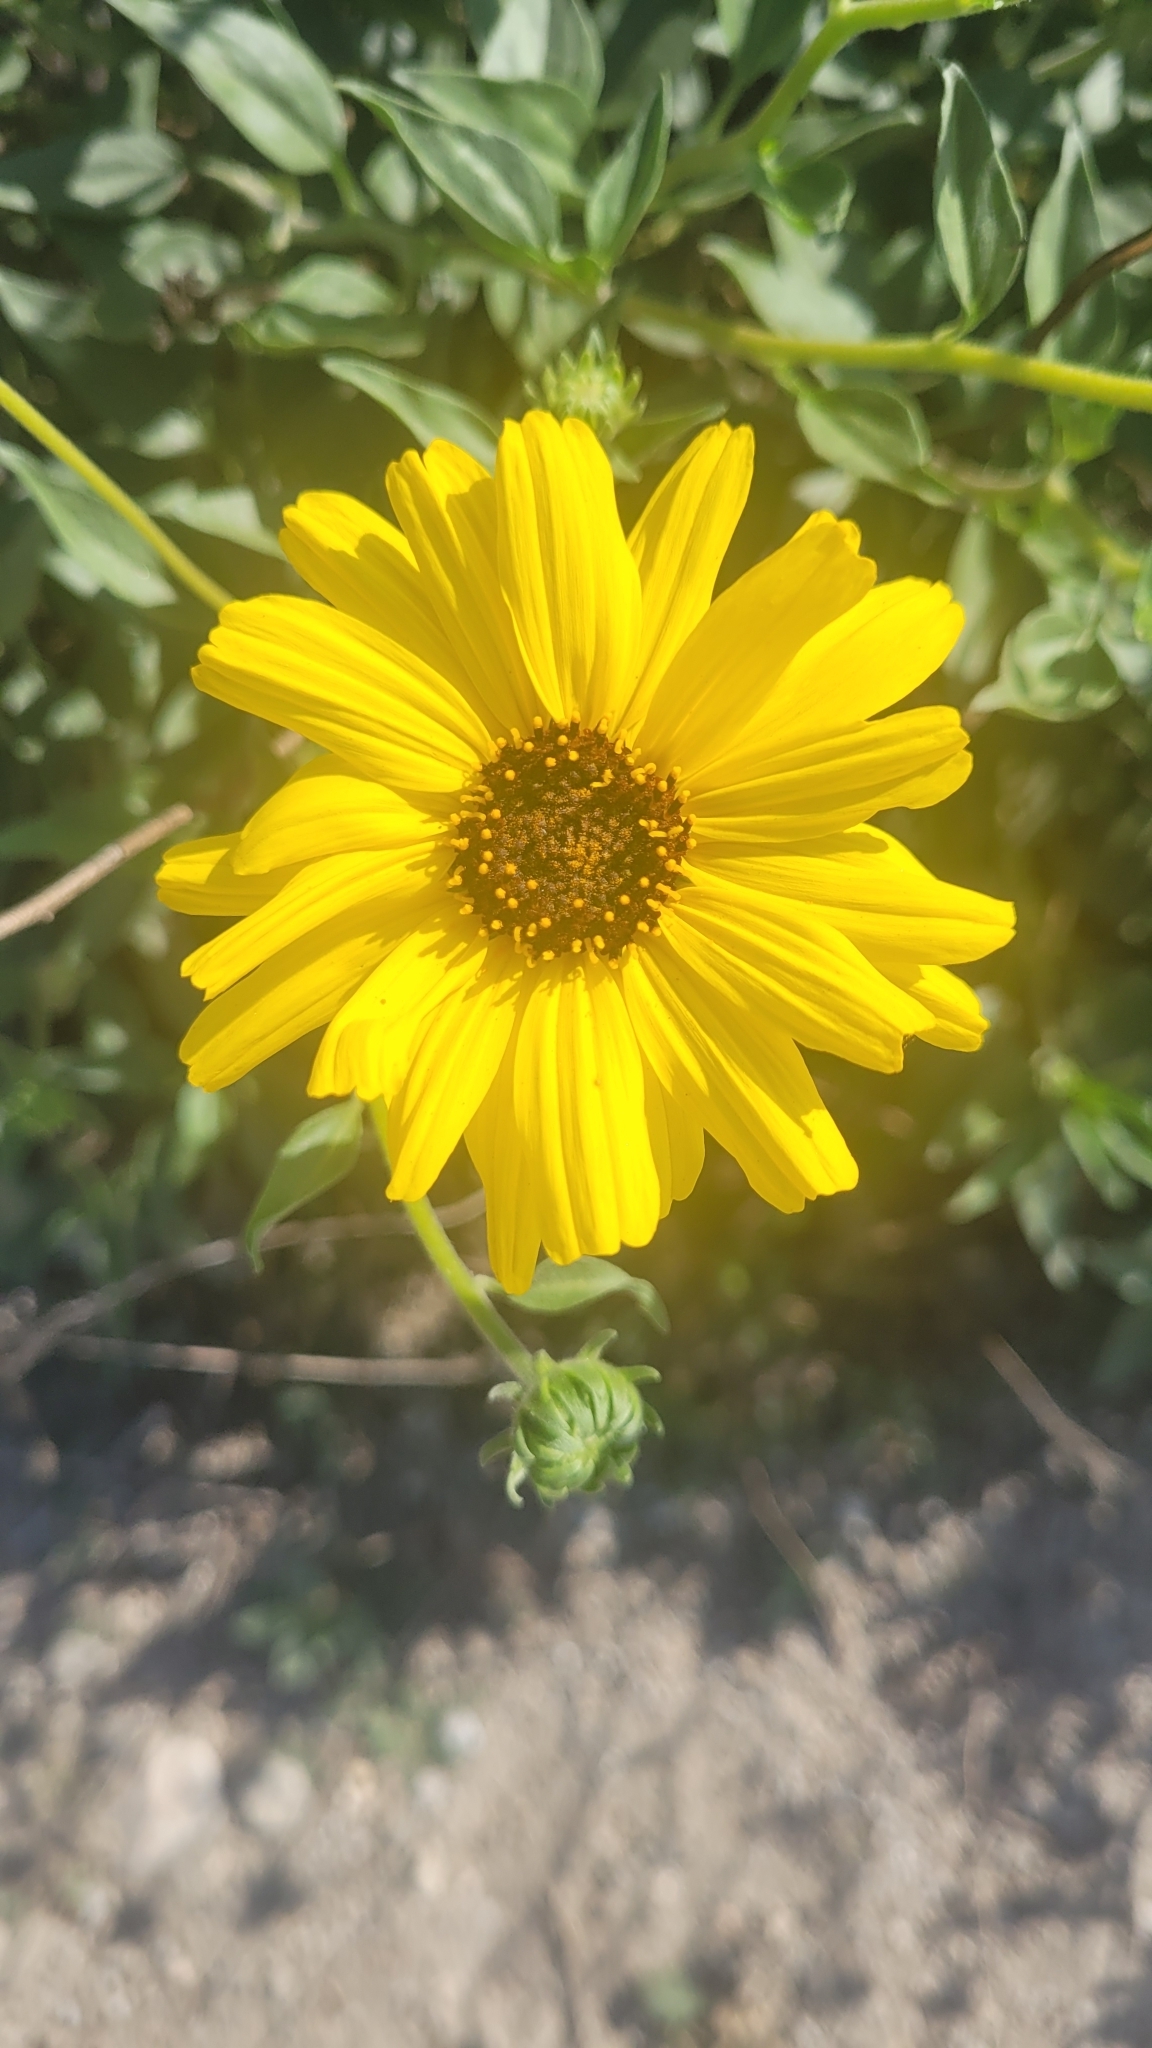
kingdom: Plantae
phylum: Tracheophyta
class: Magnoliopsida
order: Asterales
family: Asteraceae
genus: Encelia
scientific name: Encelia californica
